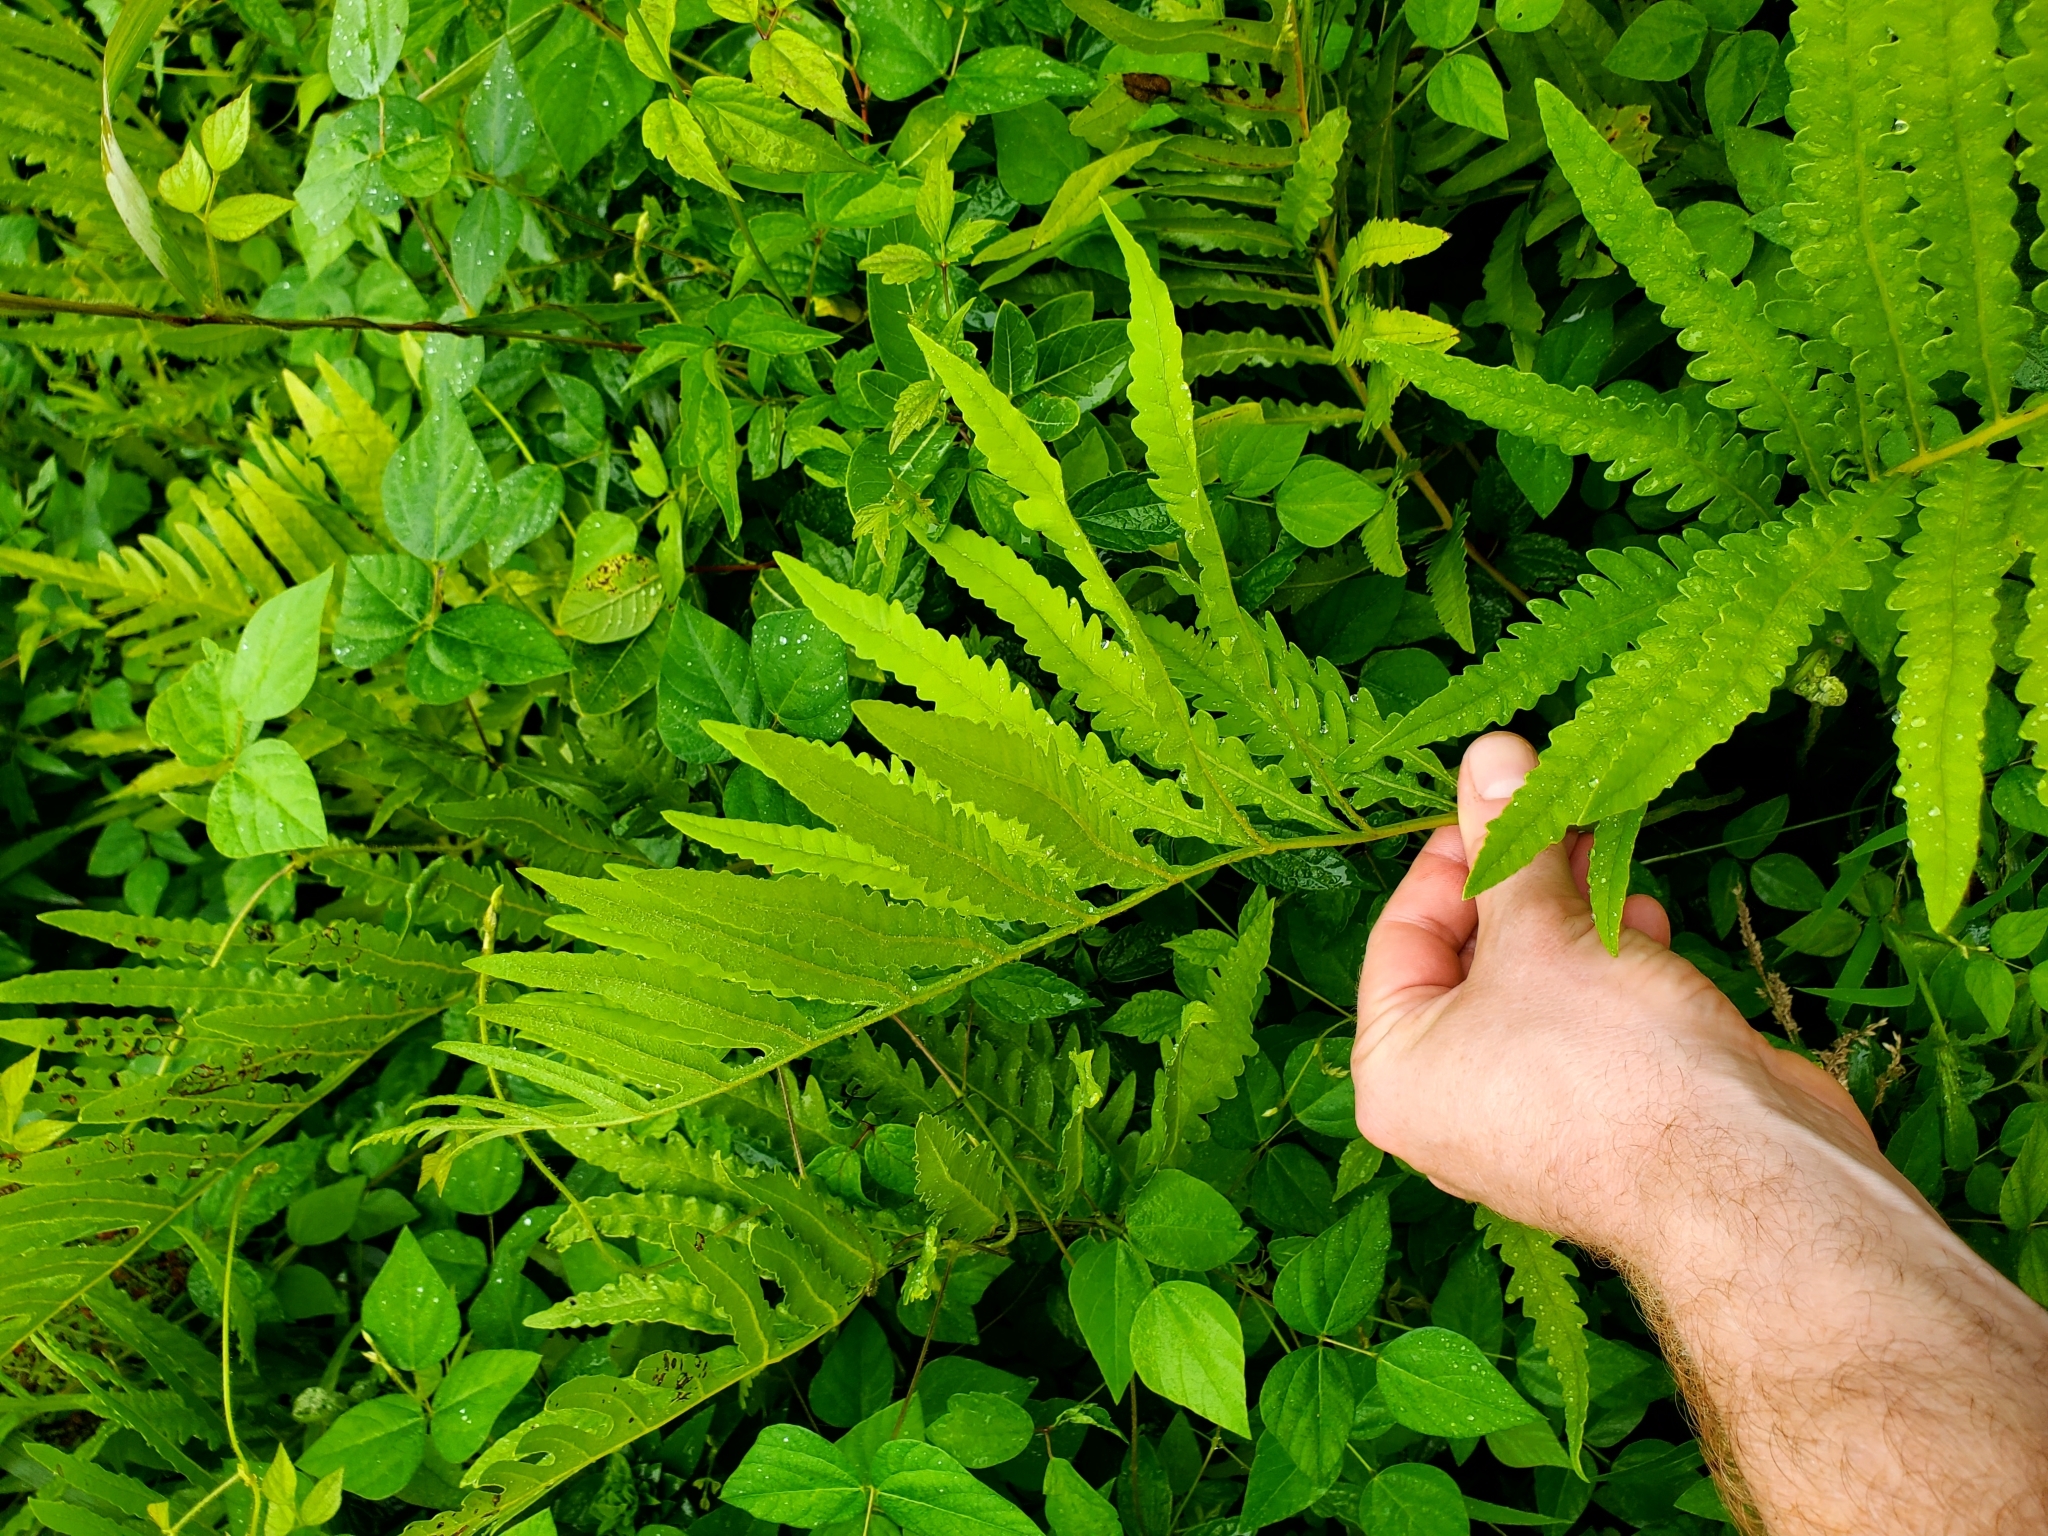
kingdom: Plantae
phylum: Tracheophyta
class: Polypodiopsida
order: Polypodiales
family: Onocleaceae
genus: Onoclea
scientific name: Onoclea sensibilis
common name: Sensitive fern
